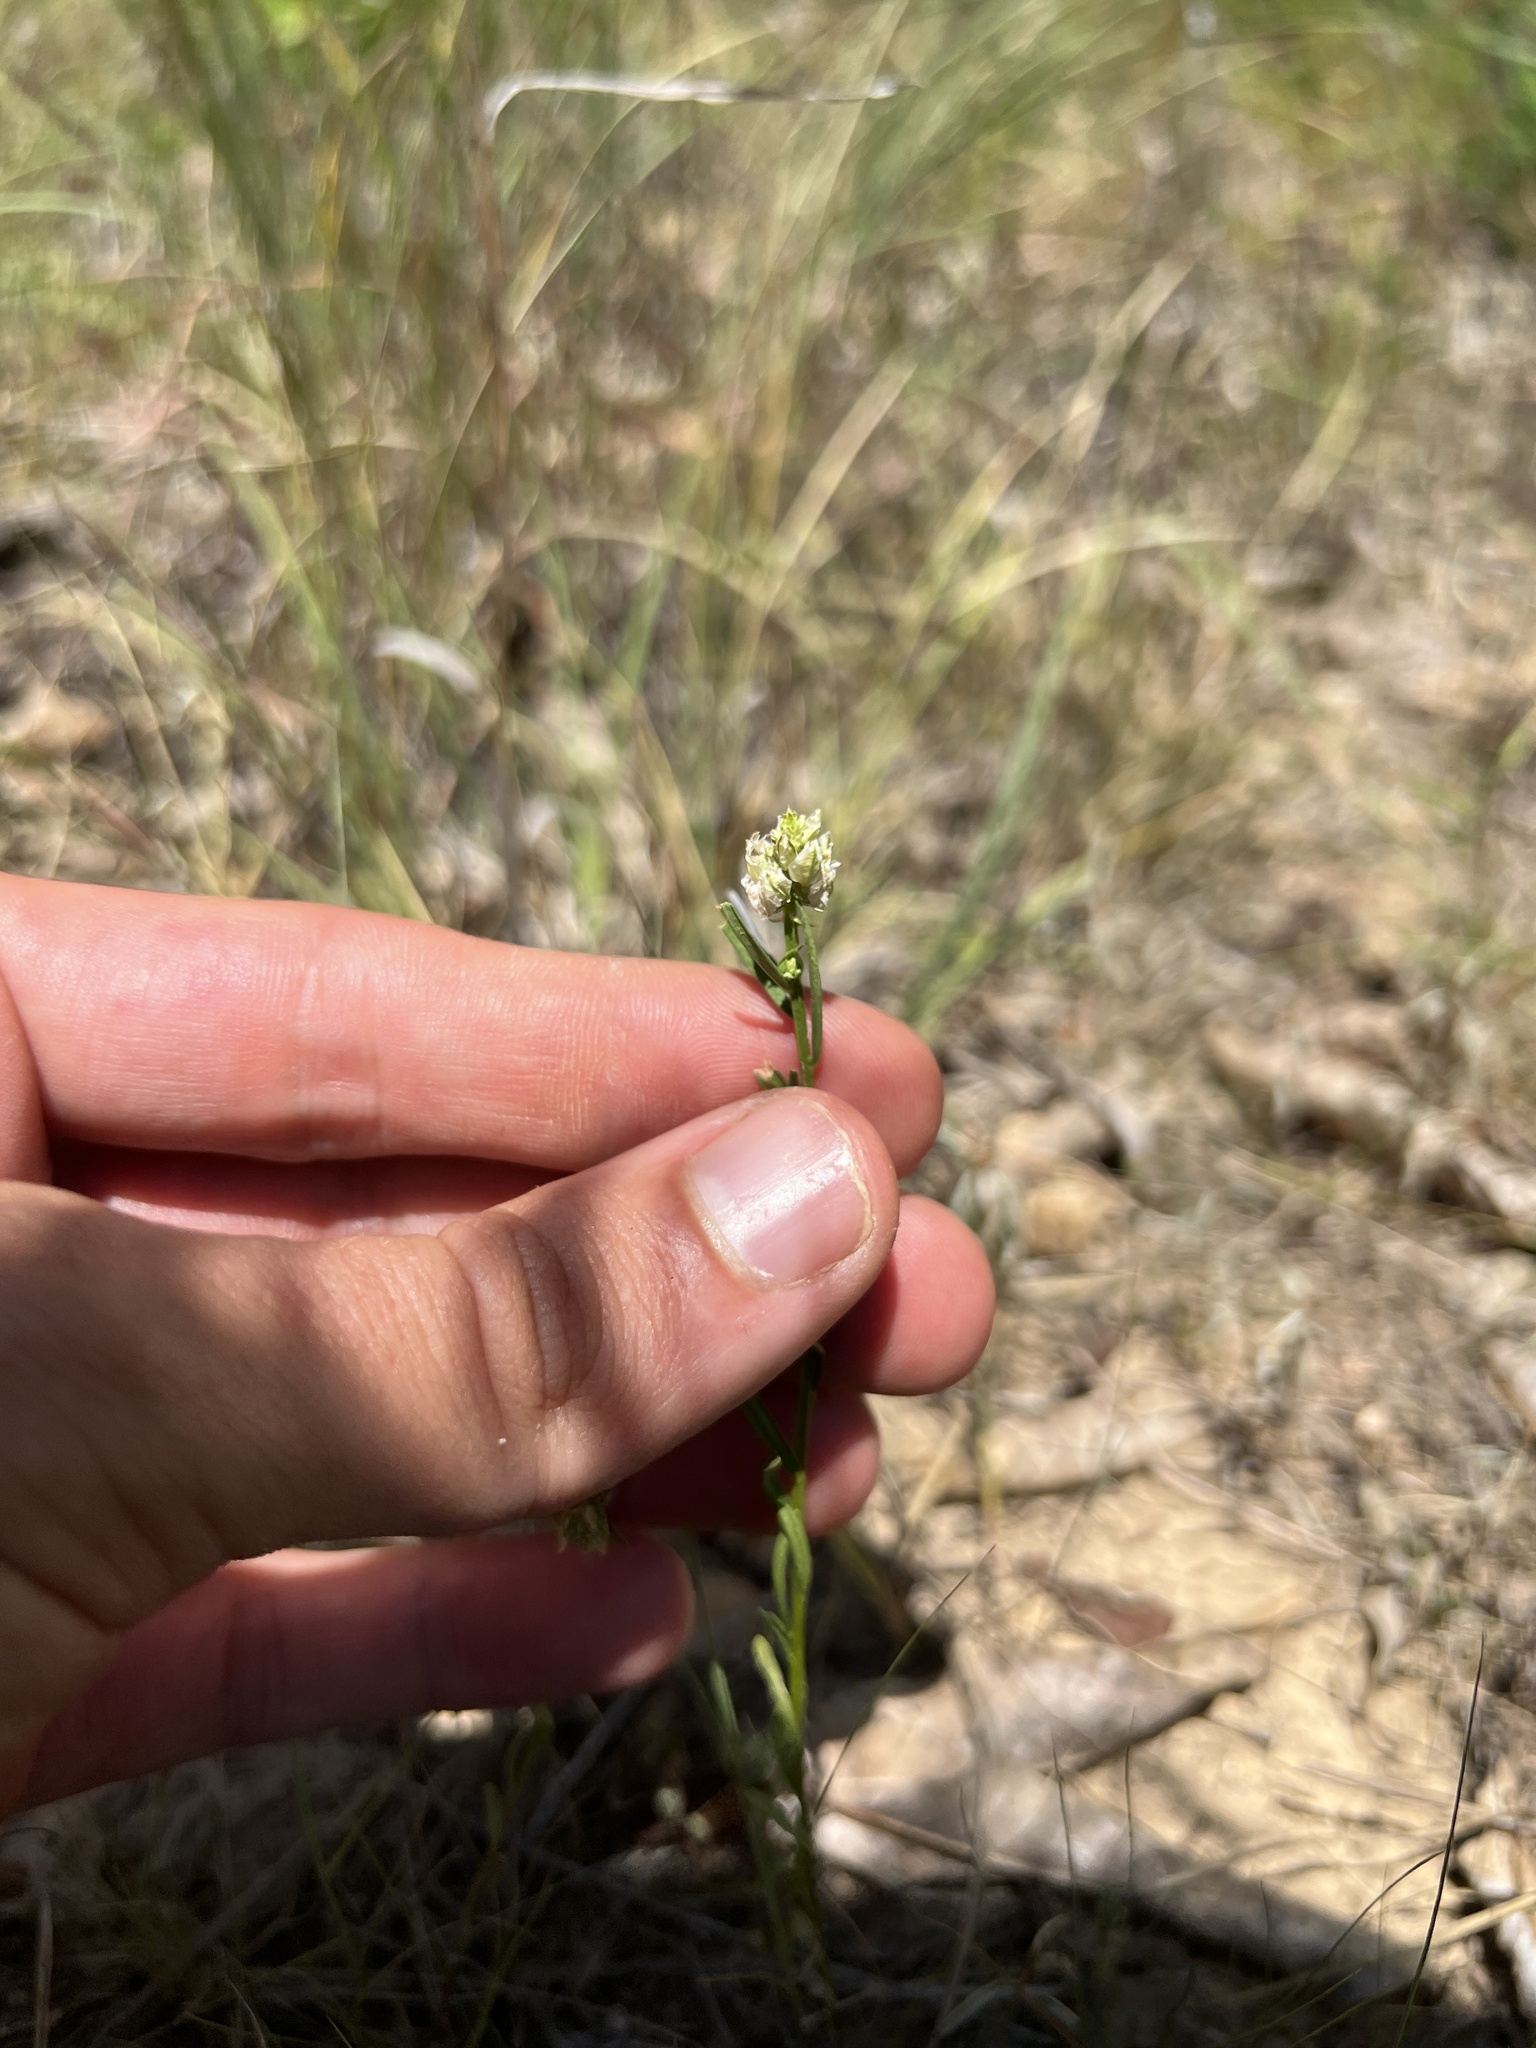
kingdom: Plantae
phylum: Tracheophyta
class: Magnoliopsida
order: Fabales
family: Polygalaceae
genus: Polygala
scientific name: Polygala sanguinea
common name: Blood milkwort
